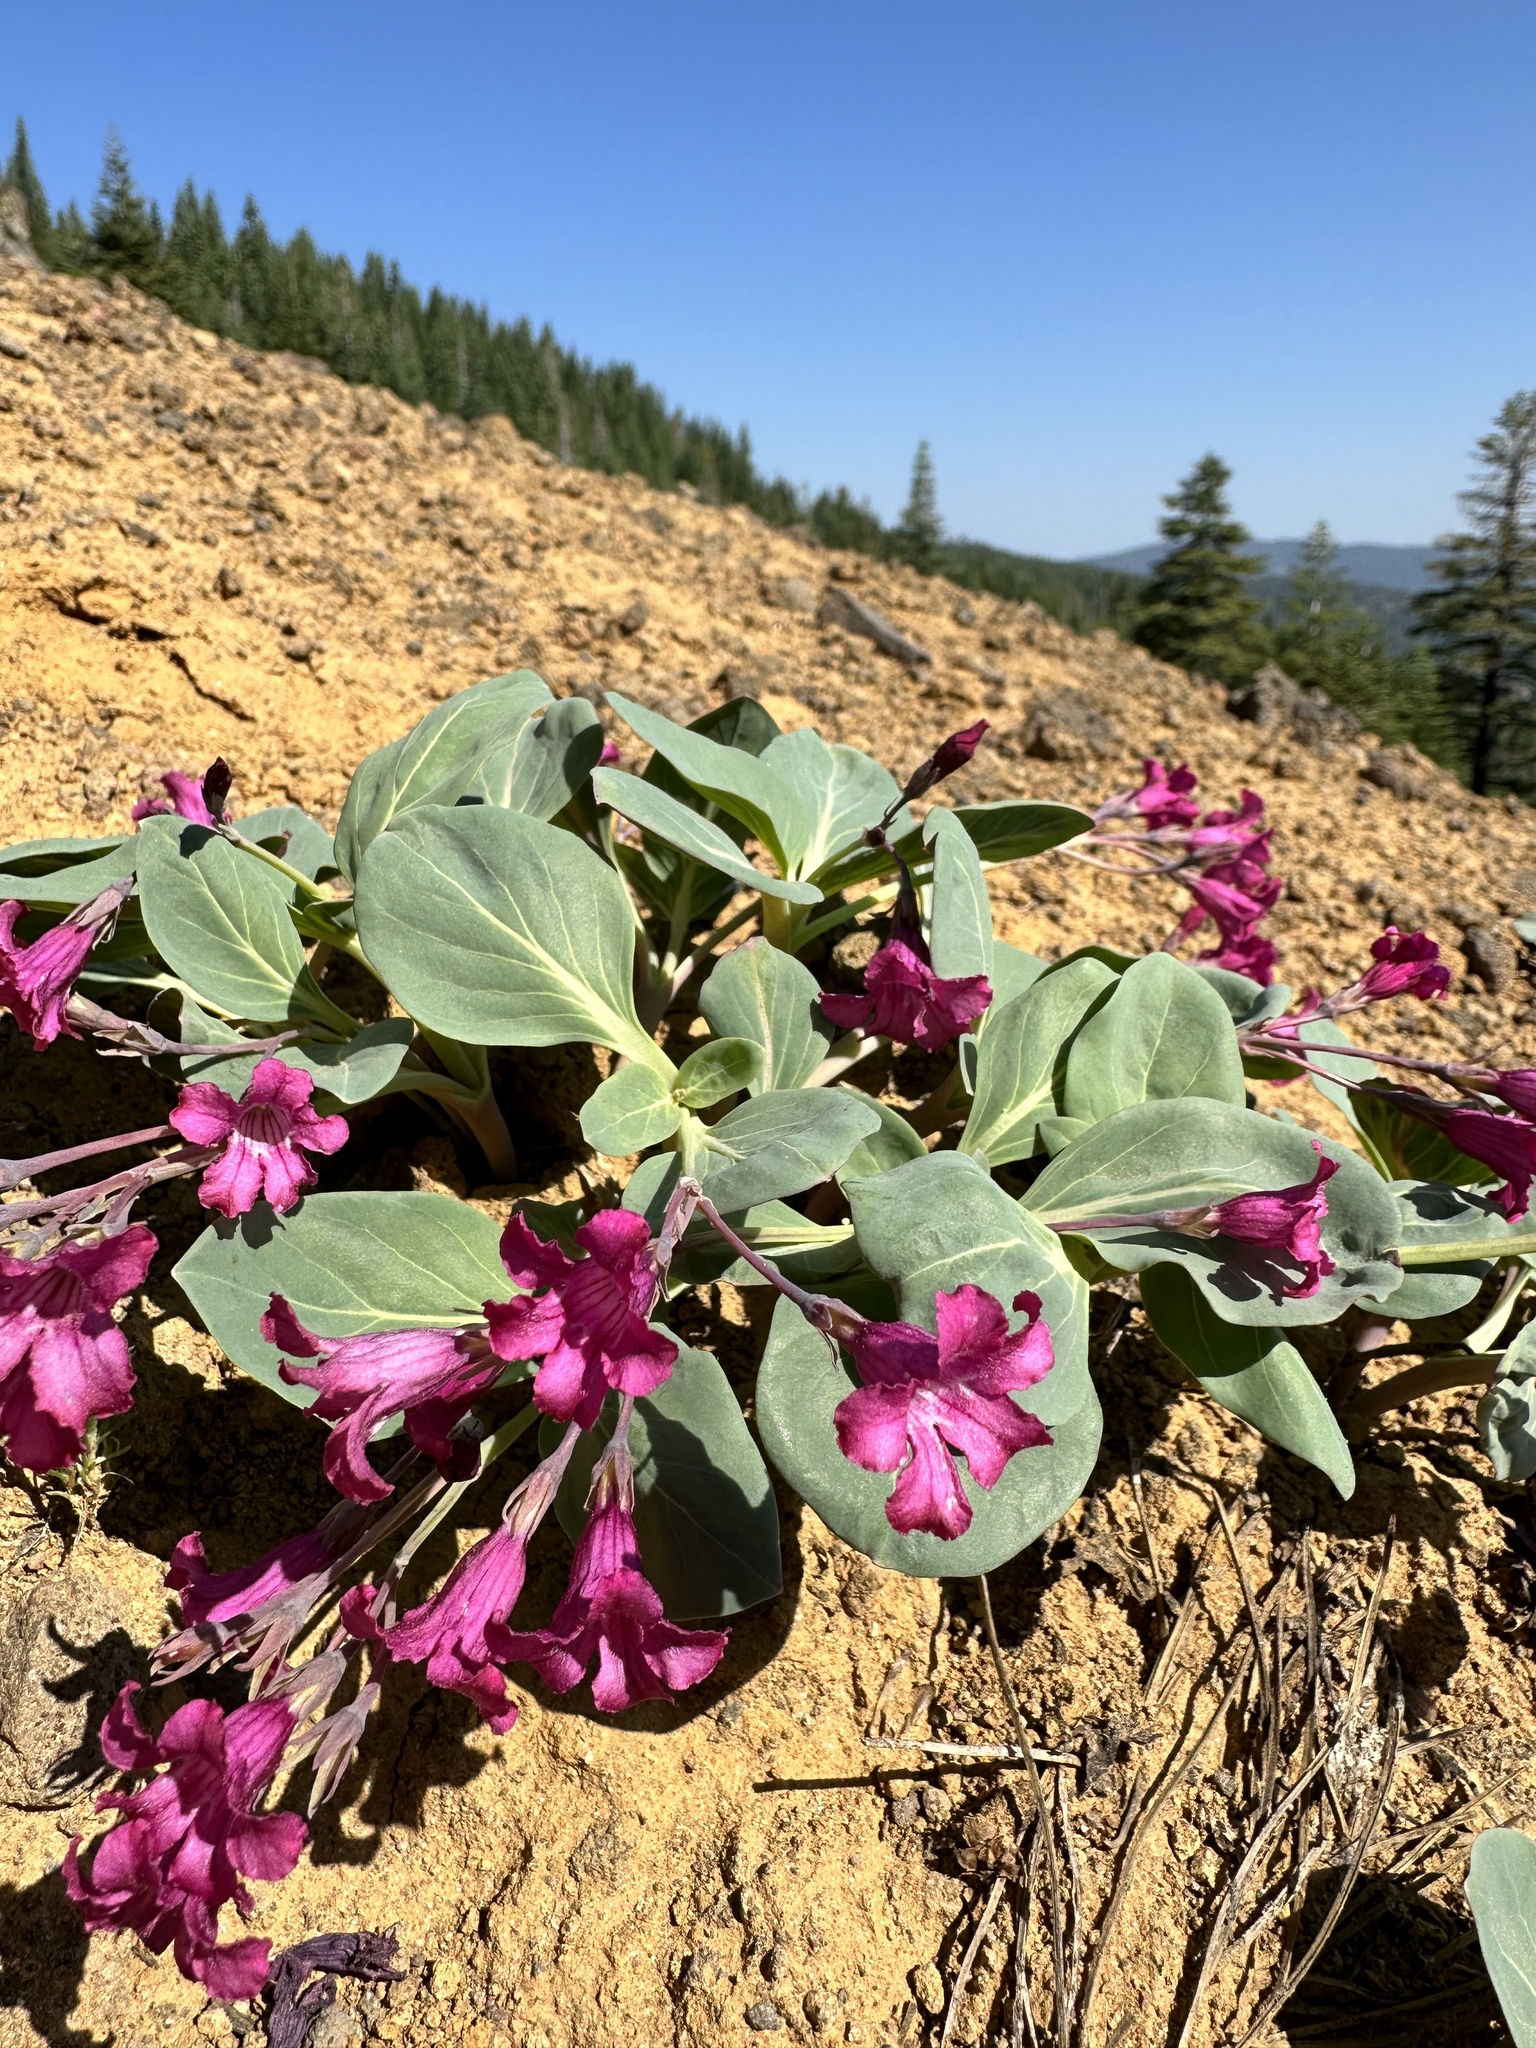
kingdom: Plantae
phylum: Tracheophyta
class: Magnoliopsida
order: Gentianales
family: Apocynaceae
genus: Cycladenia
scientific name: Cycladenia humilis
